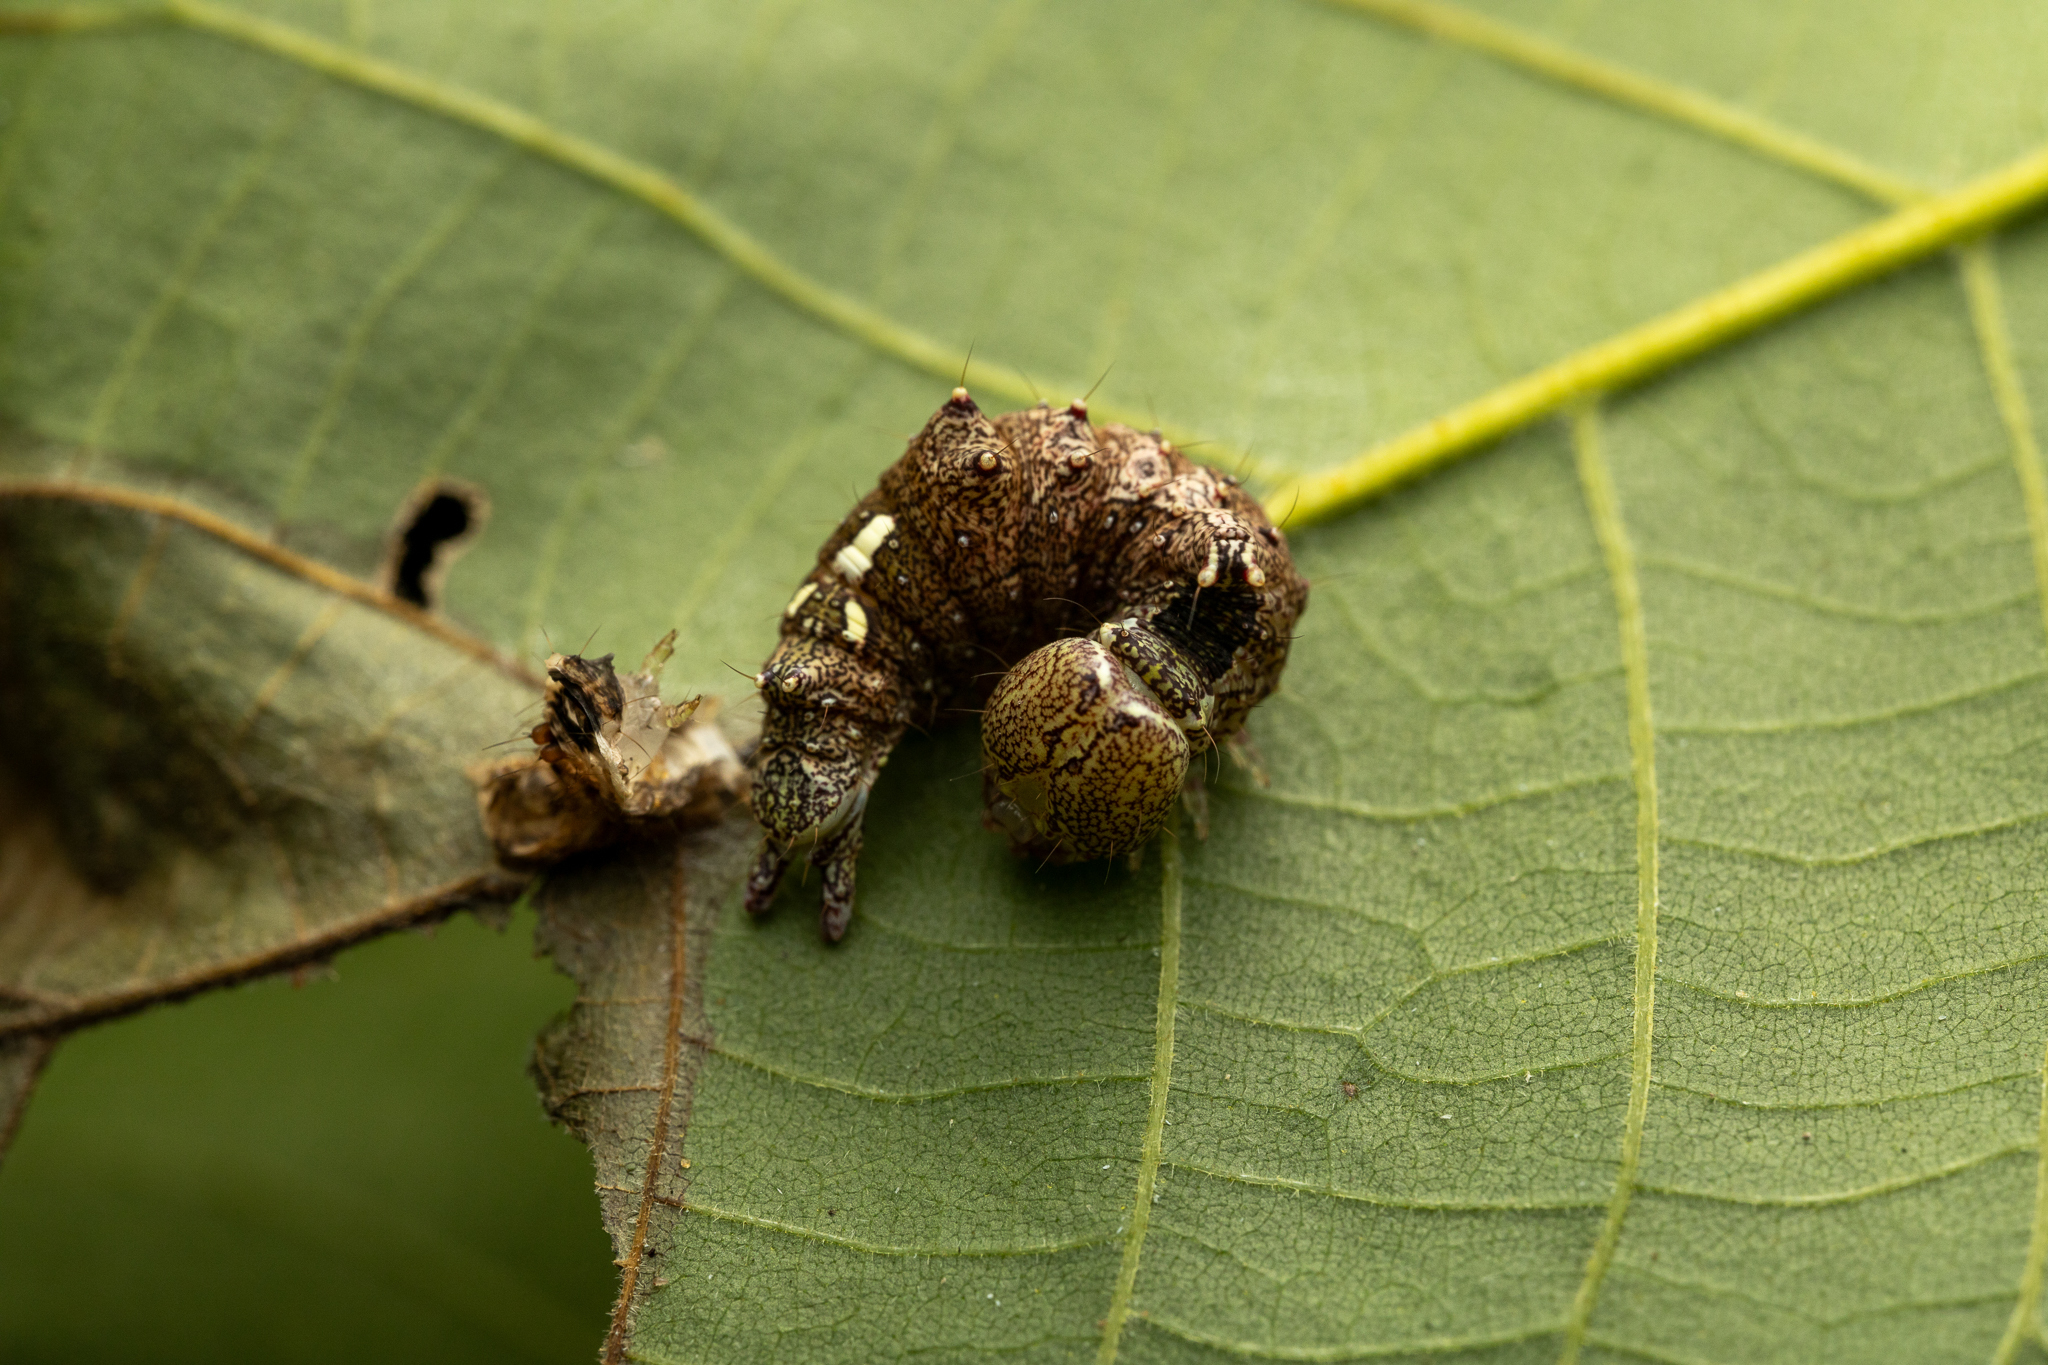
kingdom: Animalia
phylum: Arthropoda
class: Insecta
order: Lepidoptera
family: Notodontidae
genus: Schizura
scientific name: Schizura
